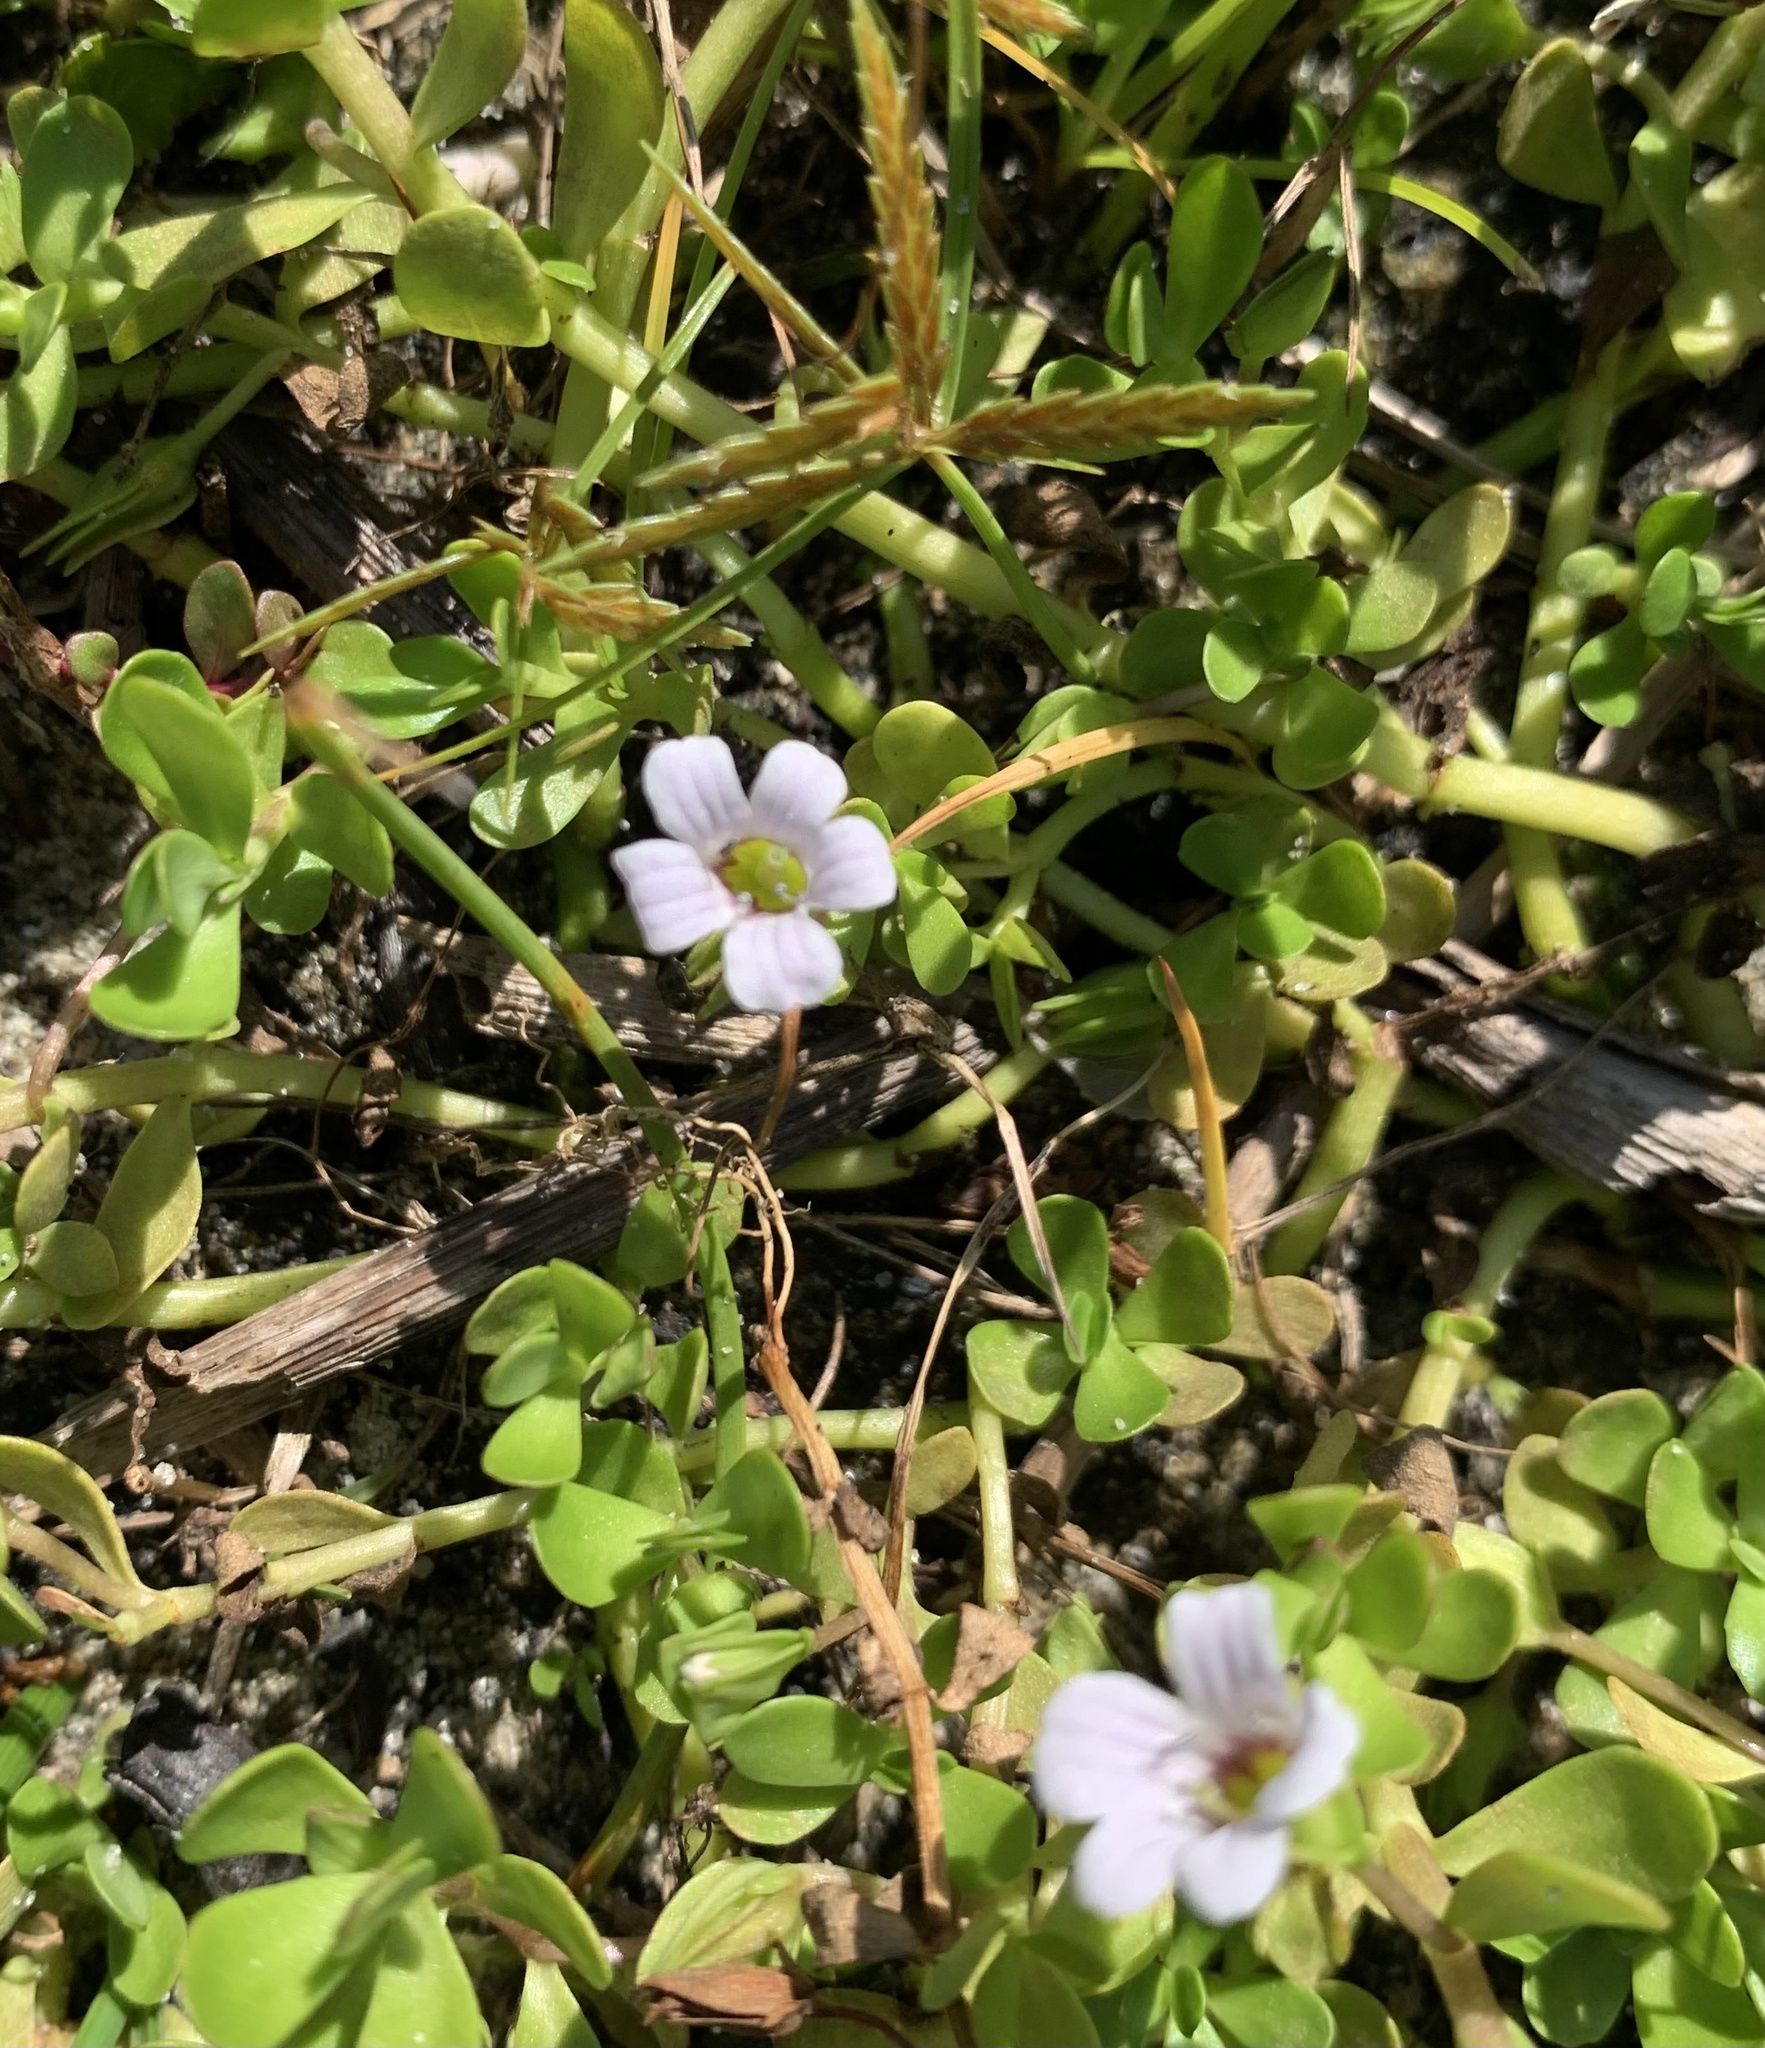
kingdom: Plantae
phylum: Tracheophyta
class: Magnoliopsida
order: Lamiales
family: Plantaginaceae
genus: Bacopa
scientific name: Bacopa monnieri
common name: Indian-pennywort
